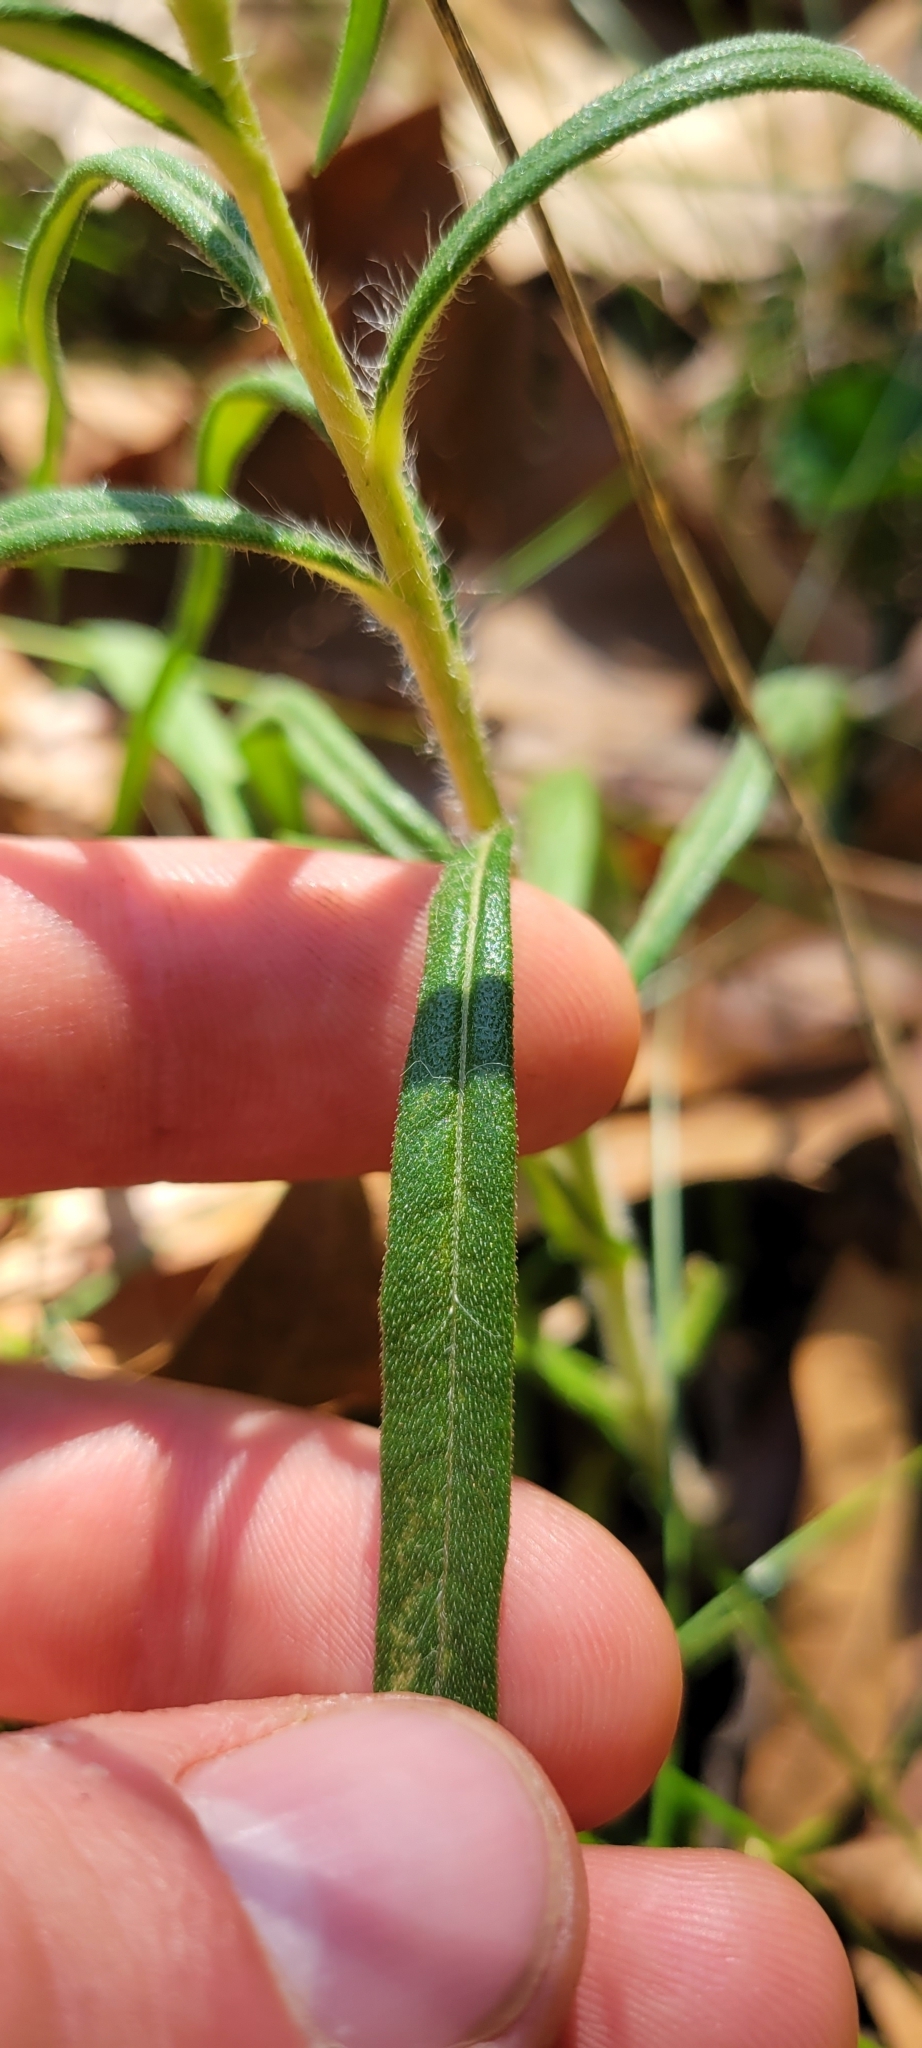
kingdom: Plantae
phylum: Tracheophyta
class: Magnoliopsida
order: Asterales
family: Asteraceae
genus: Helianthus
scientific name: Helianthus angustifolius
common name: Swamp sunflower
